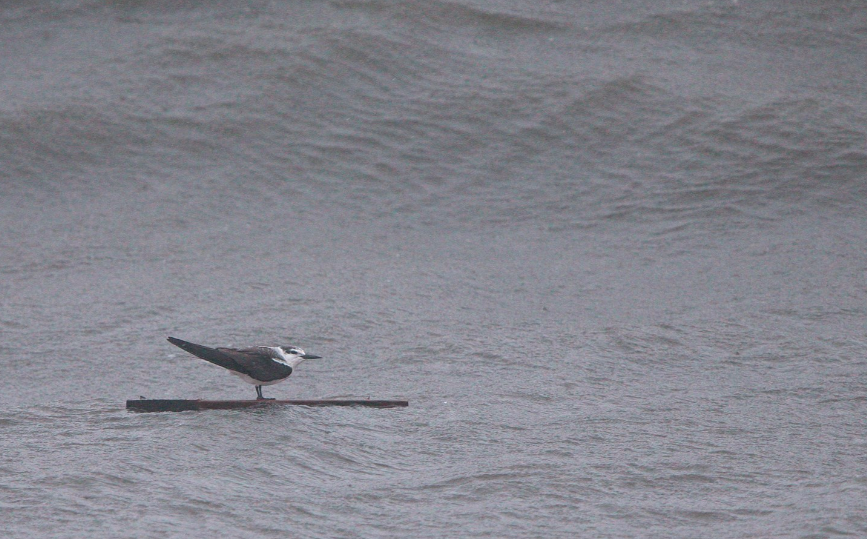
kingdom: Animalia
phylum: Chordata
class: Aves
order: Charadriiformes
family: Laridae
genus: Onychoprion
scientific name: Onychoprion anaethetus
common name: Bridled tern
